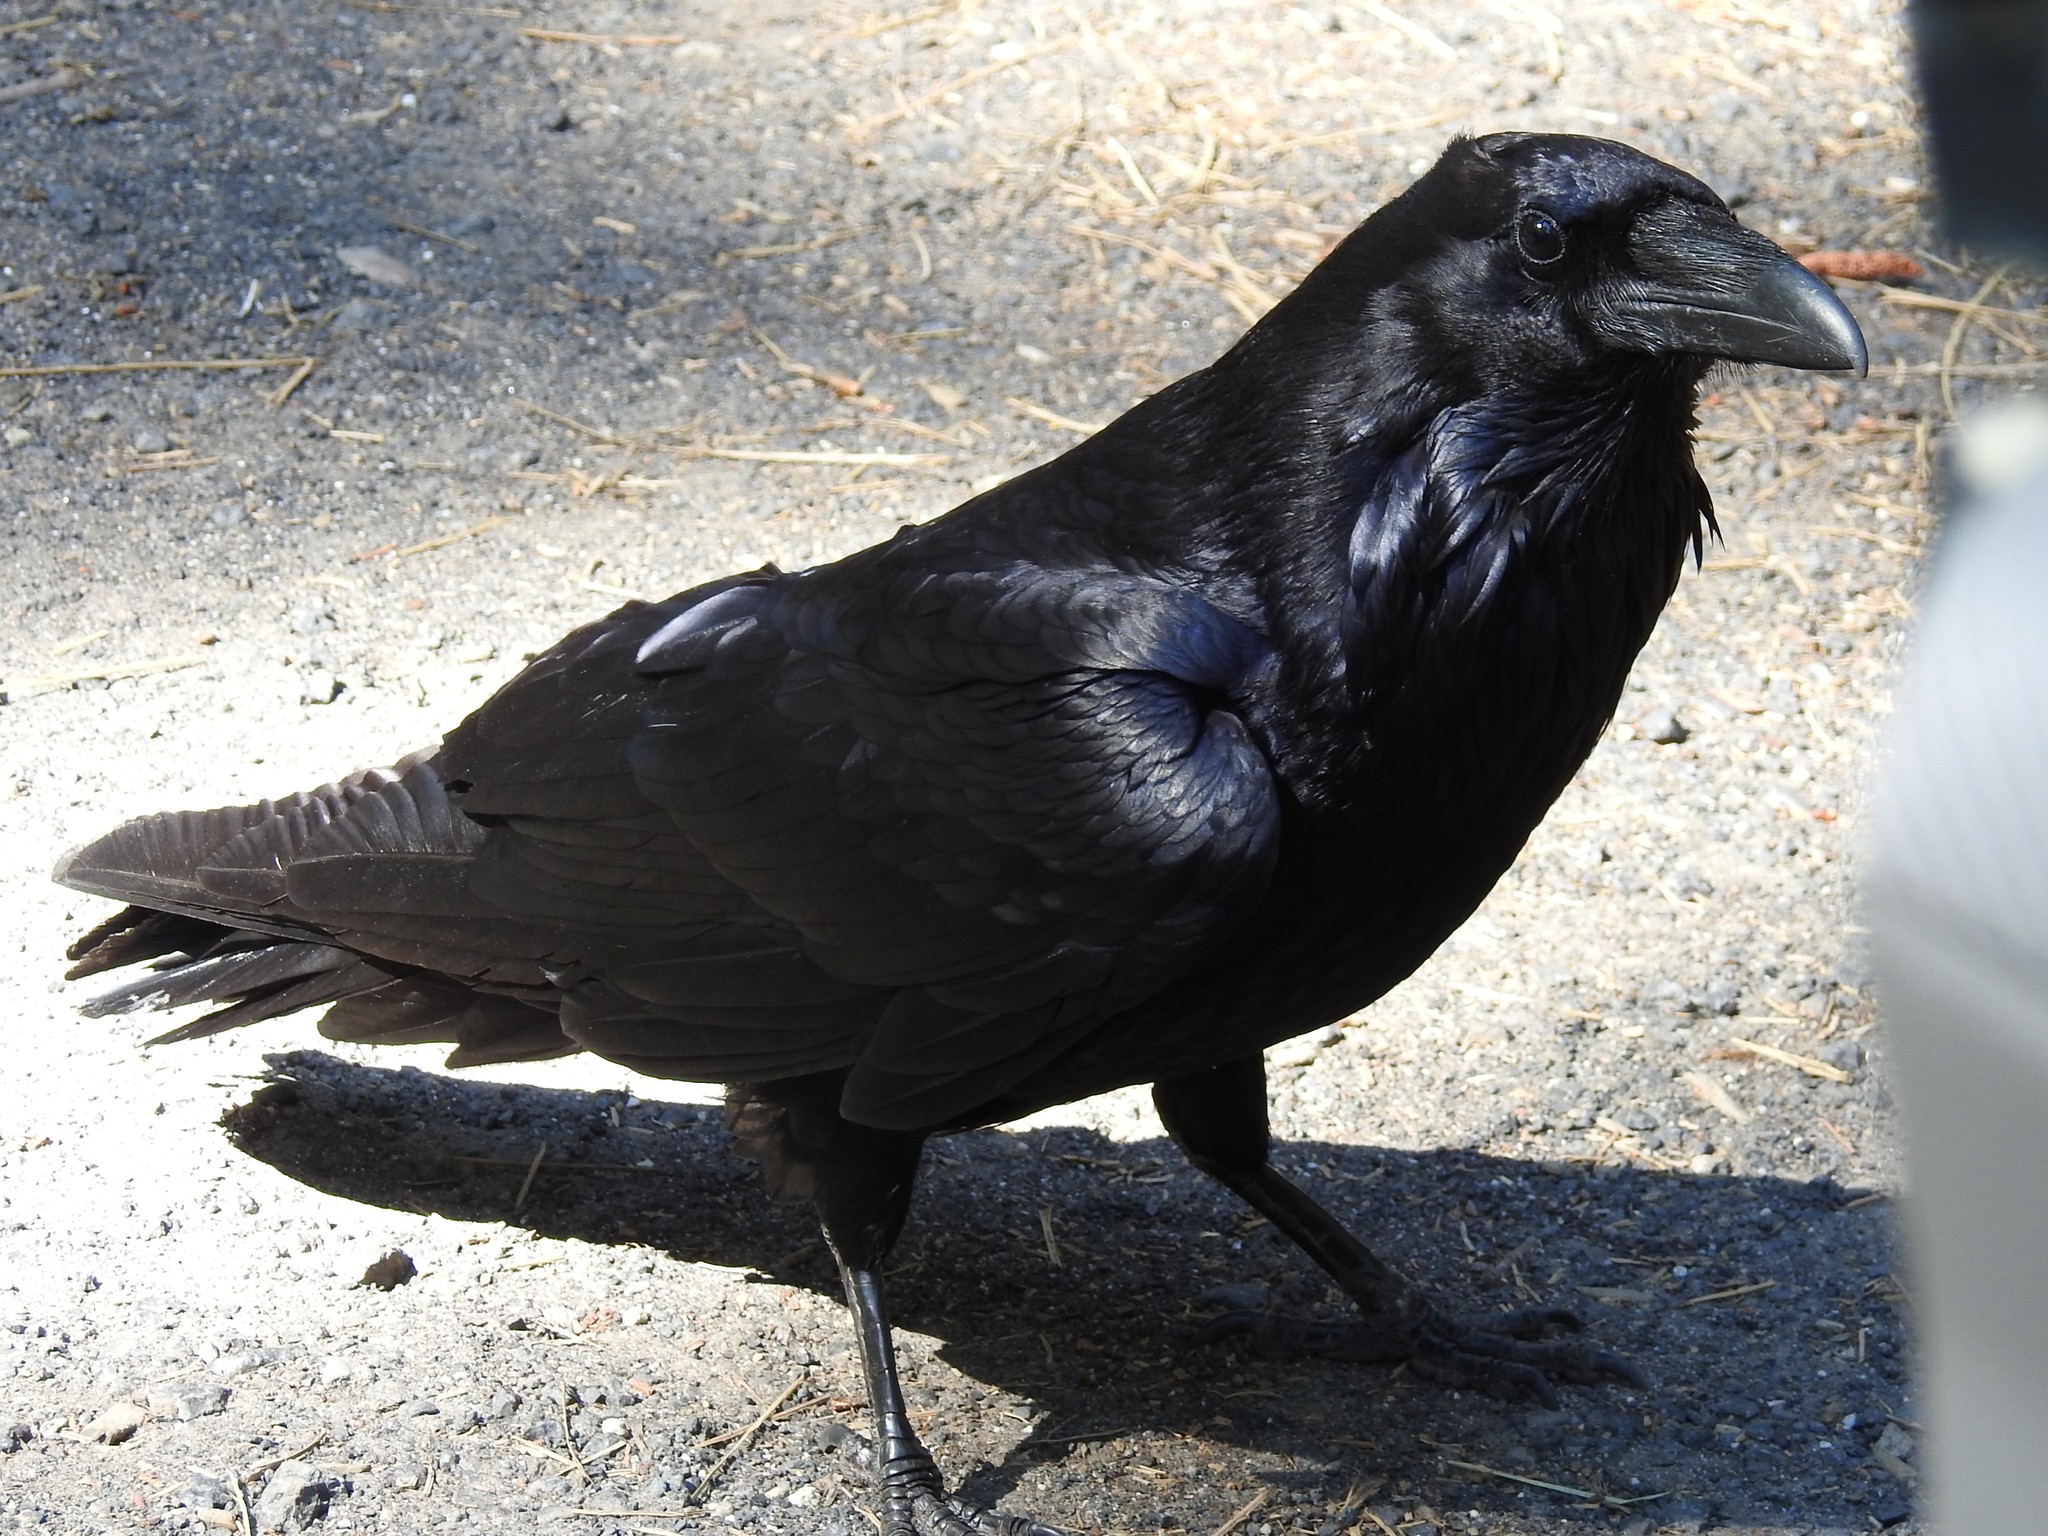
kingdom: Animalia
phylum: Chordata
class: Aves
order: Passeriformes
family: Corvidae
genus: Corvus
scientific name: Corvus corax
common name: Common raven
